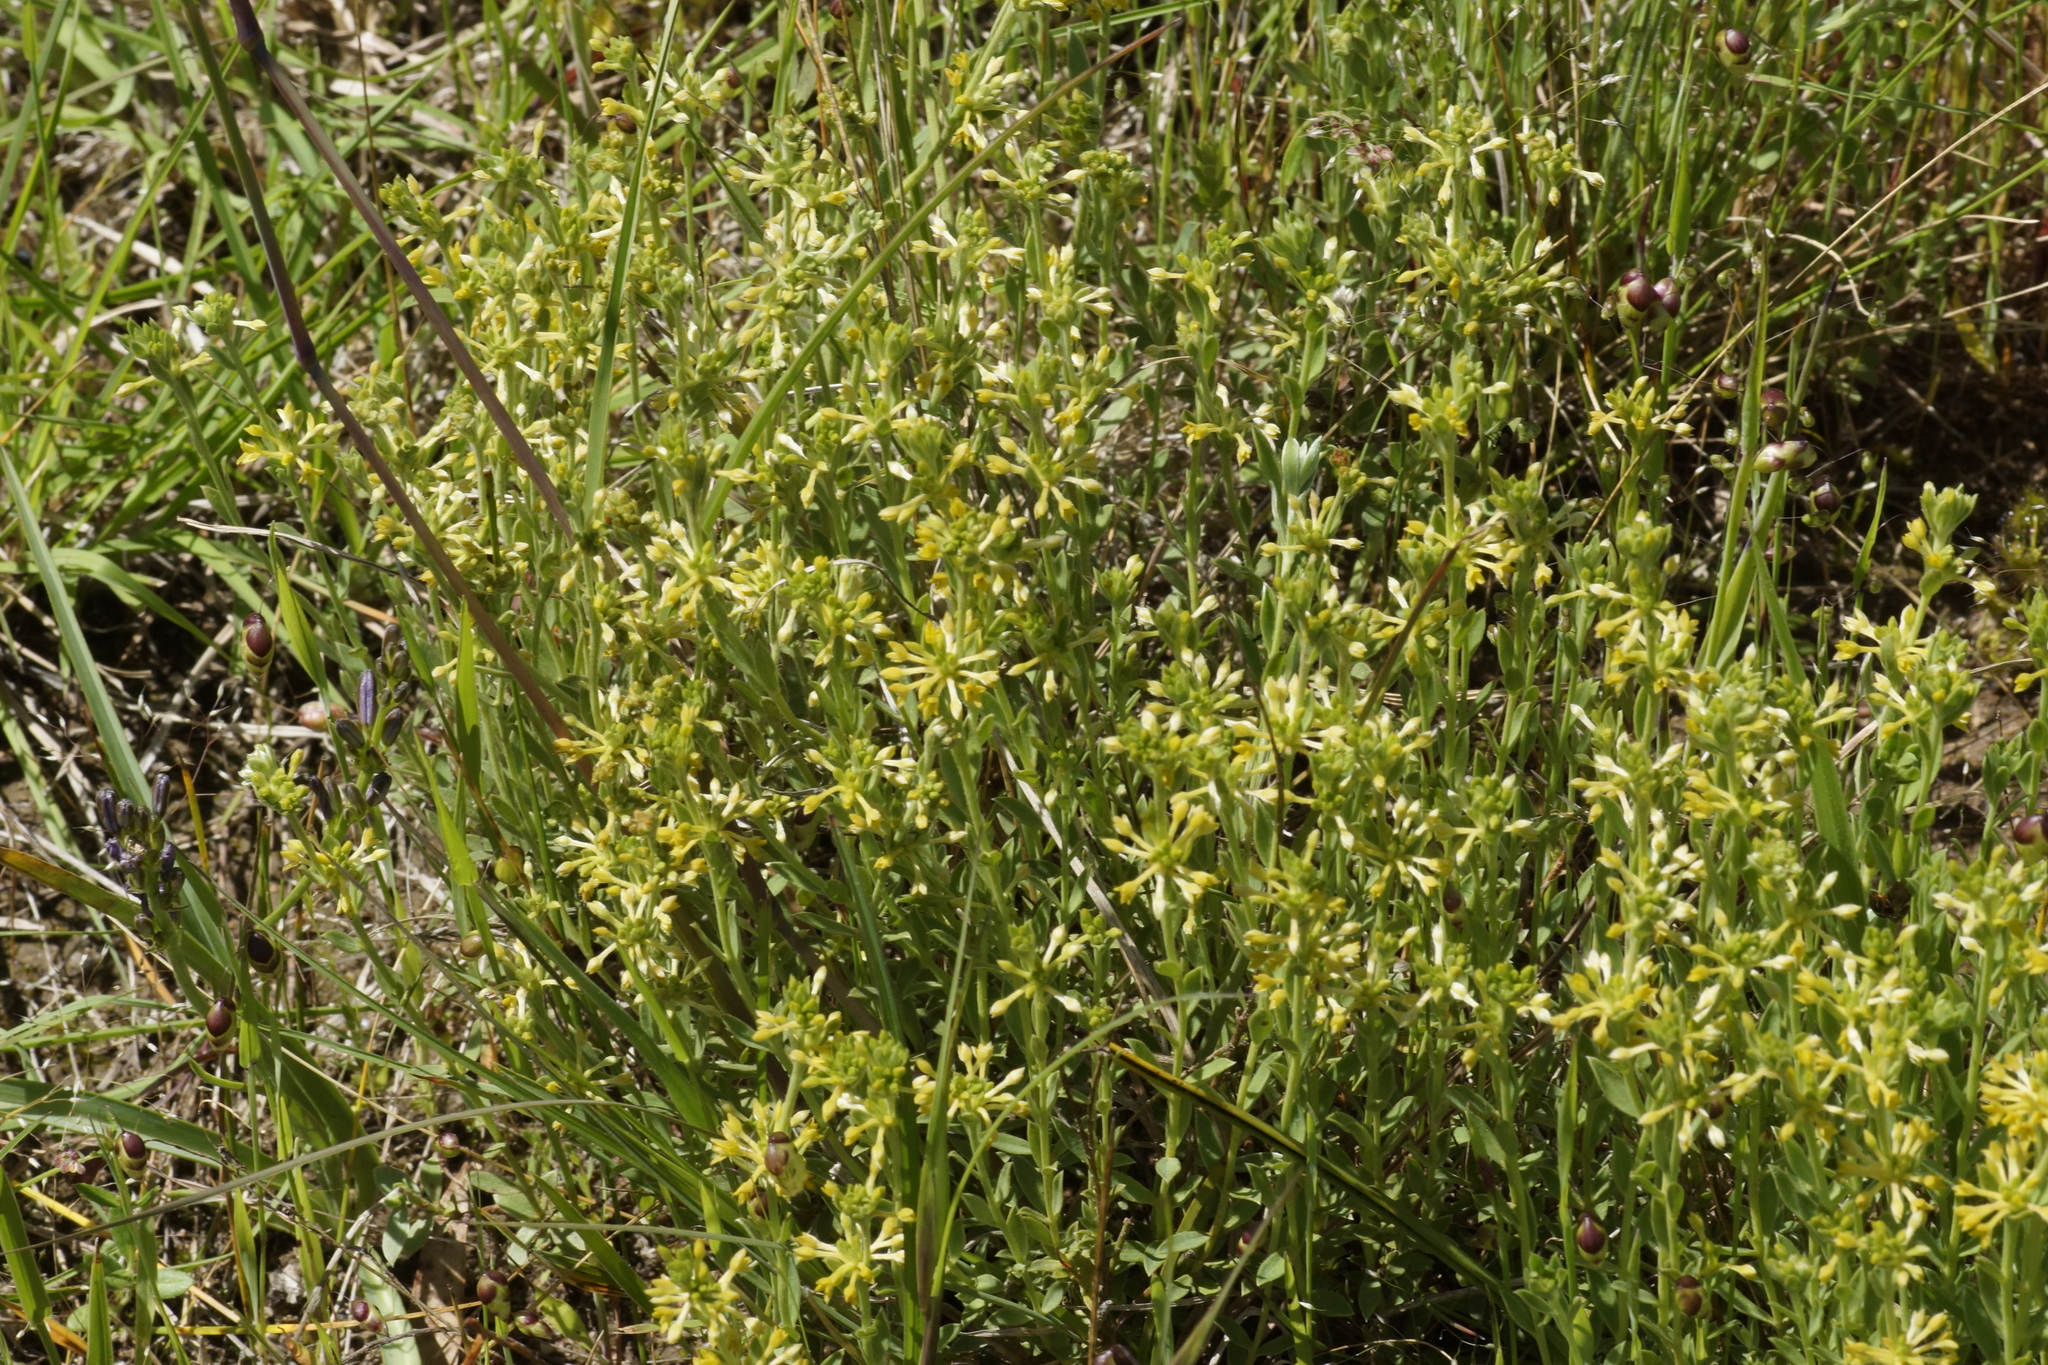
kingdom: Plantae
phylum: Tracheophyta
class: Magnoliopsida
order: Malvales
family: Thymelaeaceae
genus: Pimelea
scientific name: Pimelea curviflora
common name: Curved riceflower
